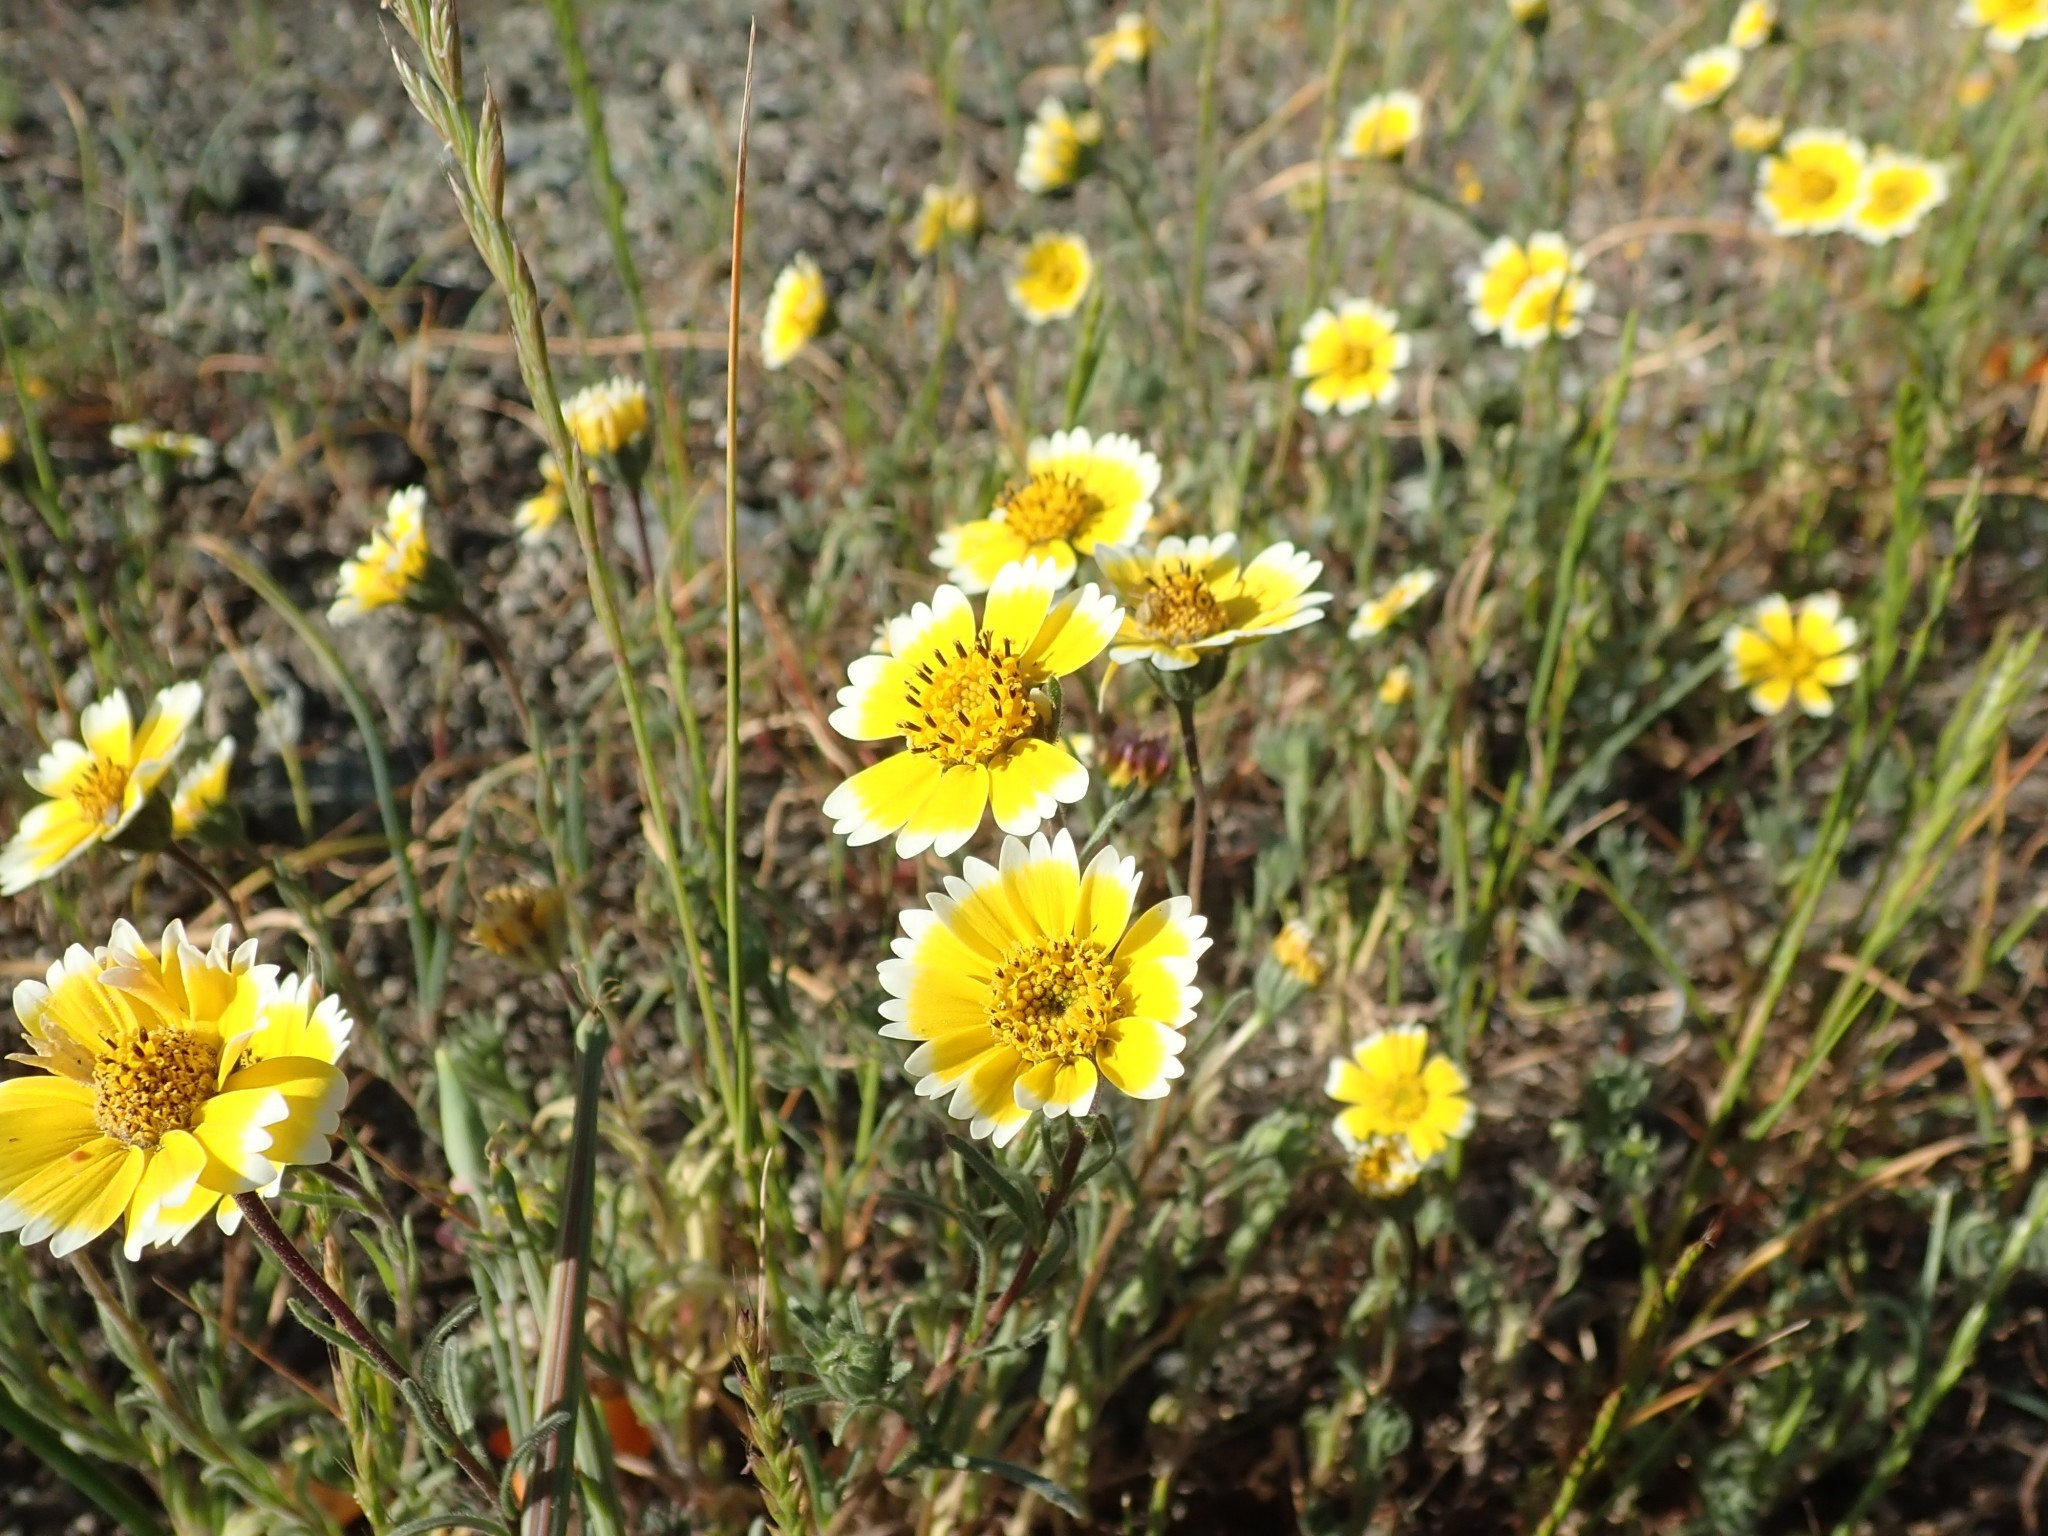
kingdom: Plantae
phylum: Tracheophyta
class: Magnoliopsida
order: Asterales
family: Asteraceae
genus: Layia
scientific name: Layia platyglossa
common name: Tidy-tips
